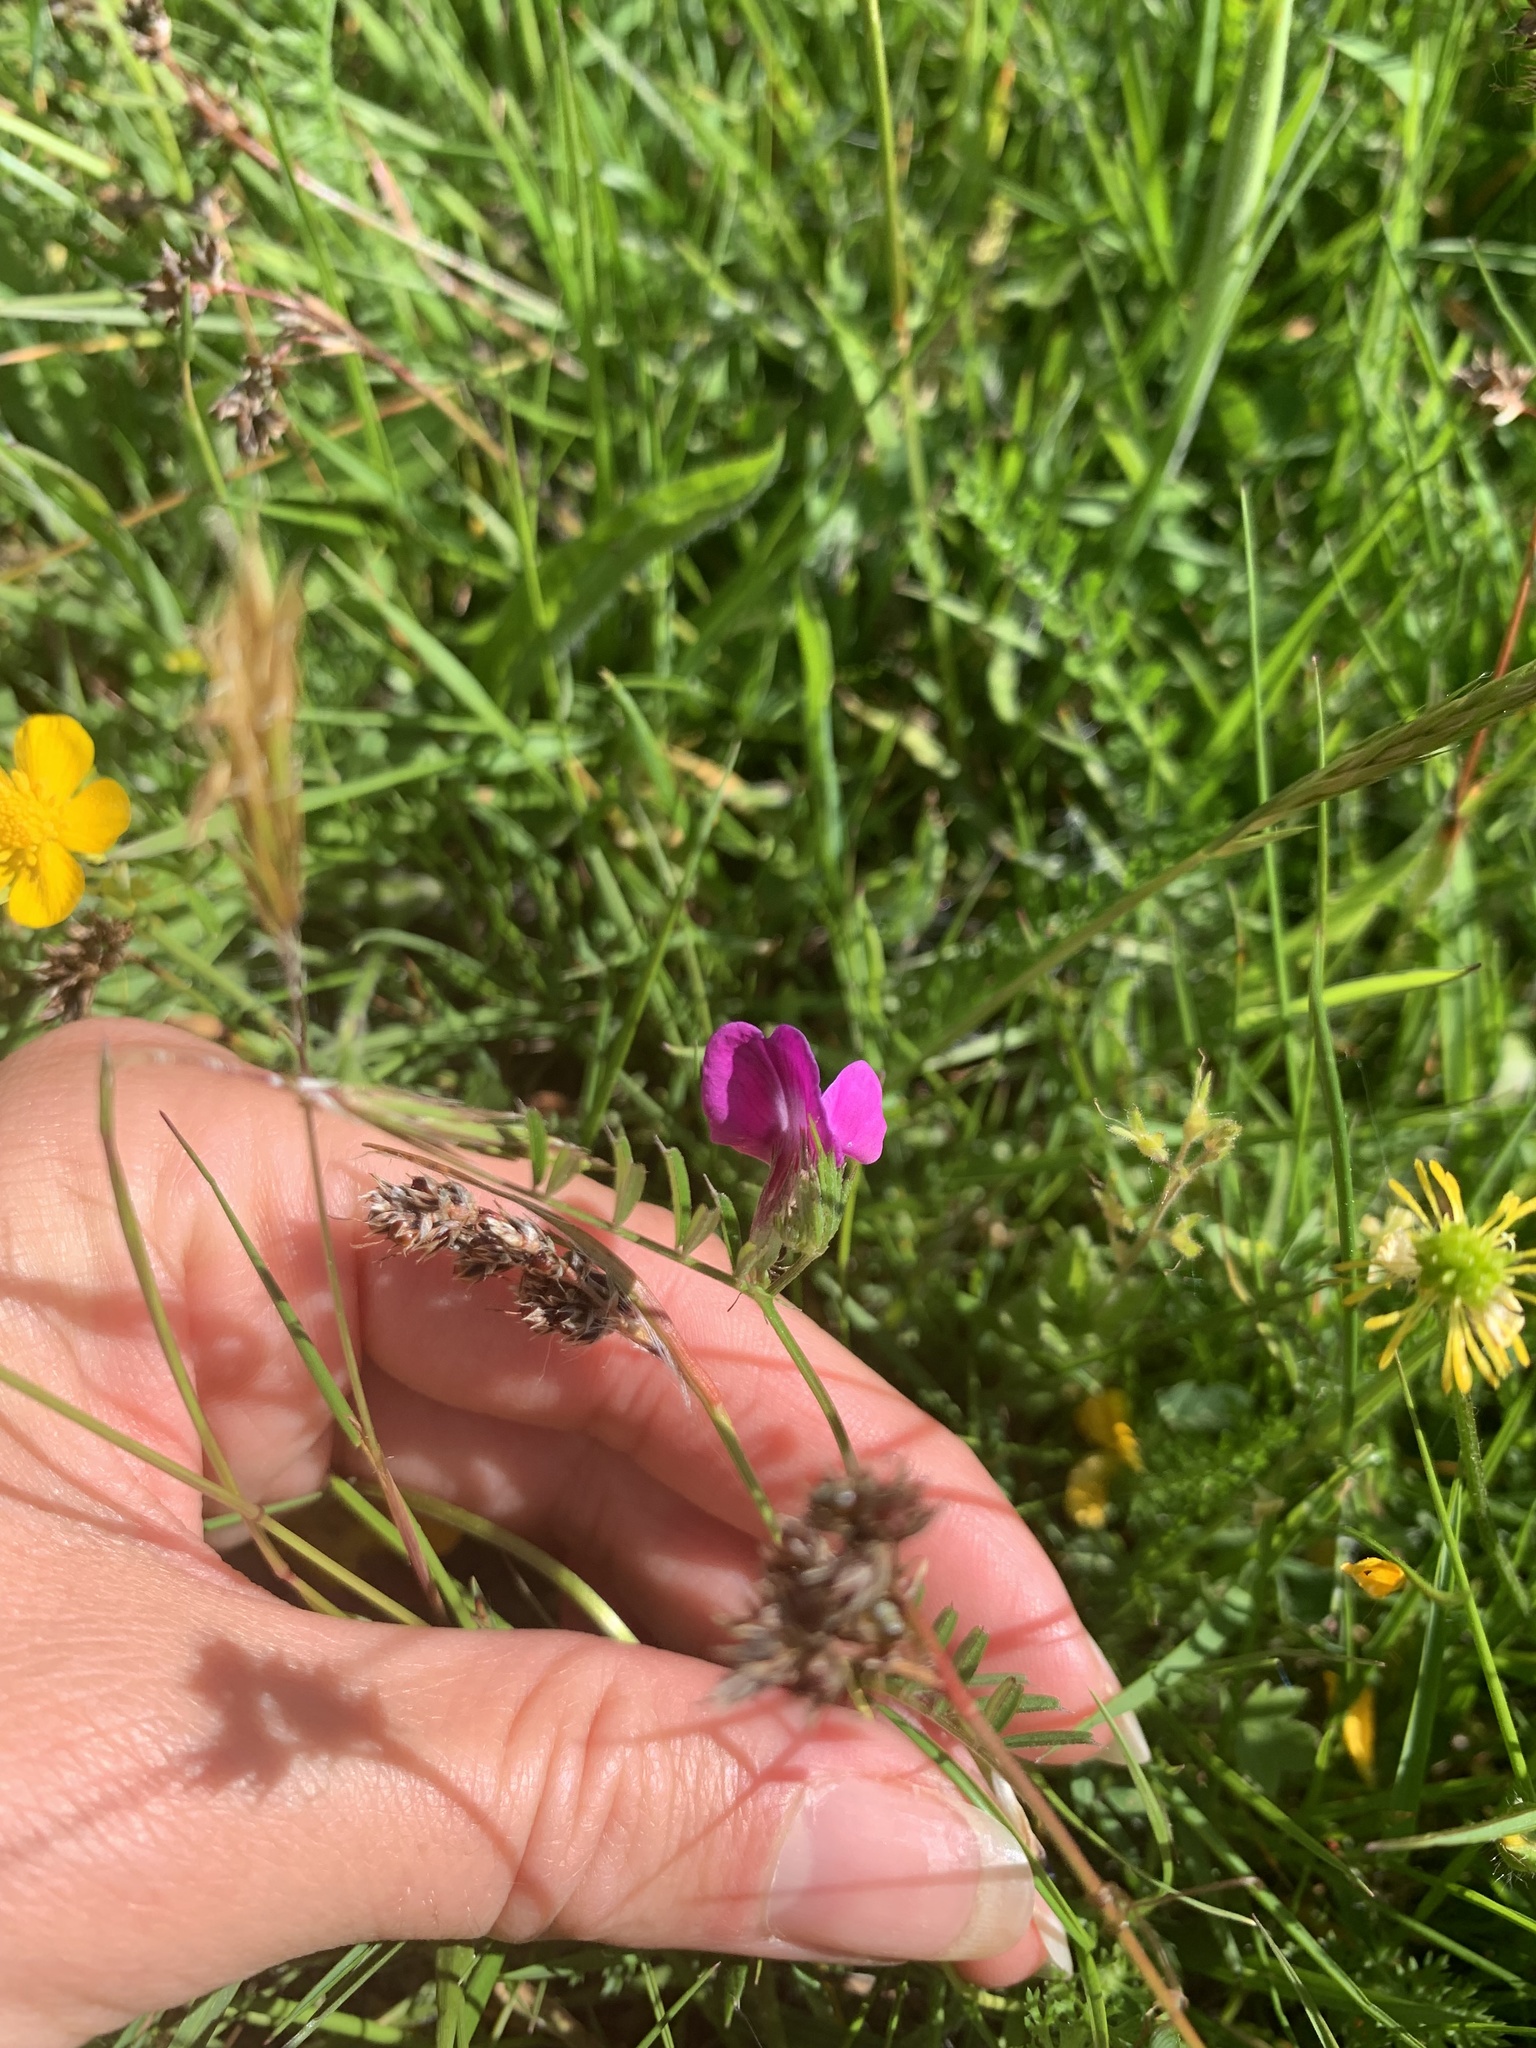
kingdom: Plantae
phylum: Tracheophyta
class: Magnoliopsida
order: Fabales
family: Fabaceae
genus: Vicia
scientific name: Vicia sativa
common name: Garden vetch
